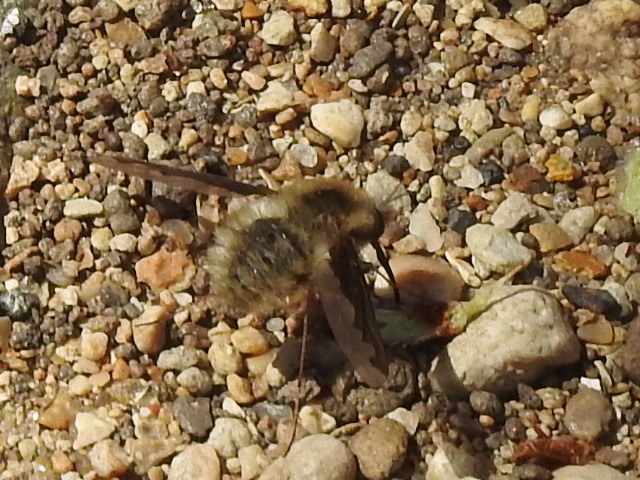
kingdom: Animalia
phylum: Arthropoda
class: Insecta
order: Diptera
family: Bombyliidae
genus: Bombylius
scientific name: Bombylius major
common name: Bee fly
